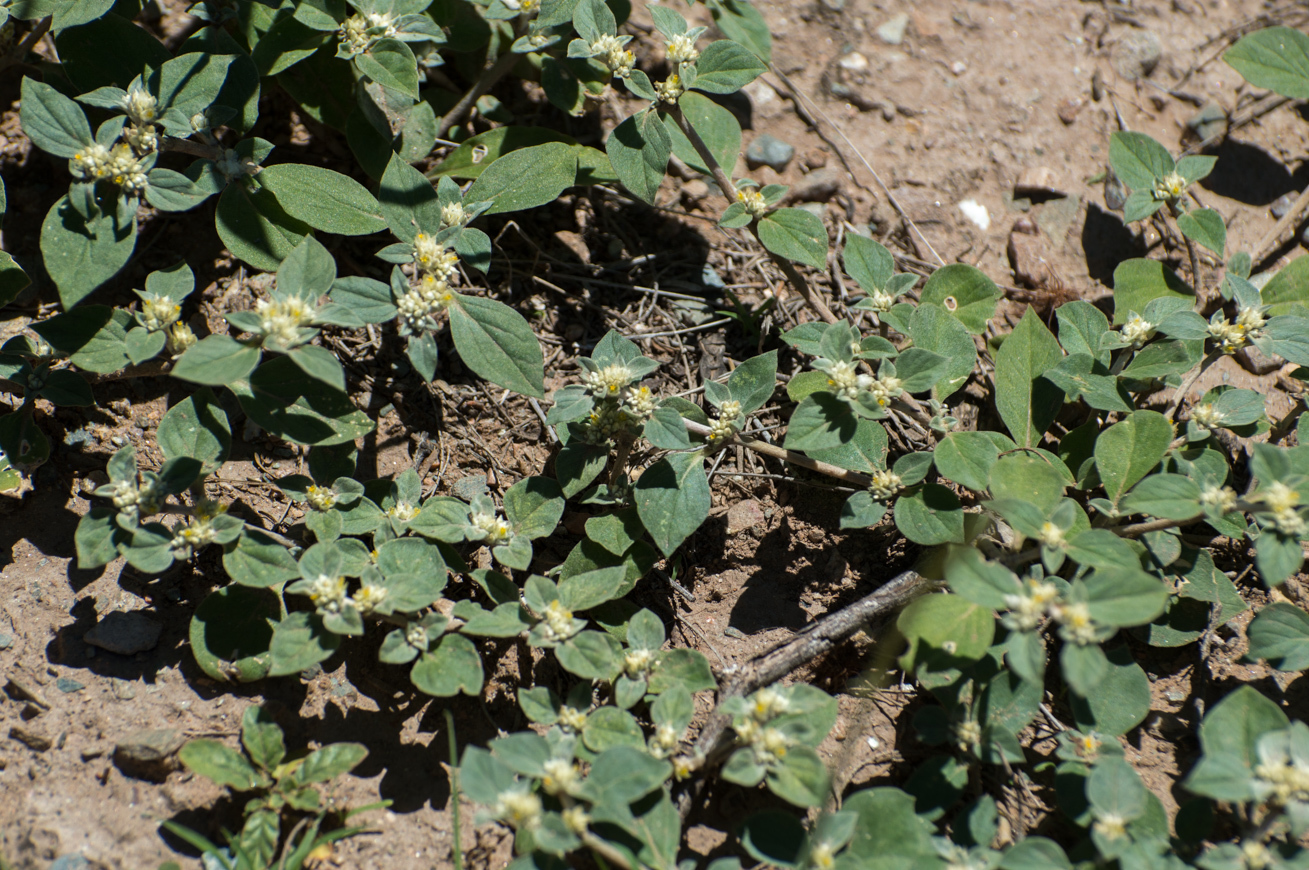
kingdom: Plantae
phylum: Tracheophyta
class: Magnoliopsida
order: Caryophyllales
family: Amaranthaceae
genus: Gomphrena
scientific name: Gomphrena martiana
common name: Globe amaranth
